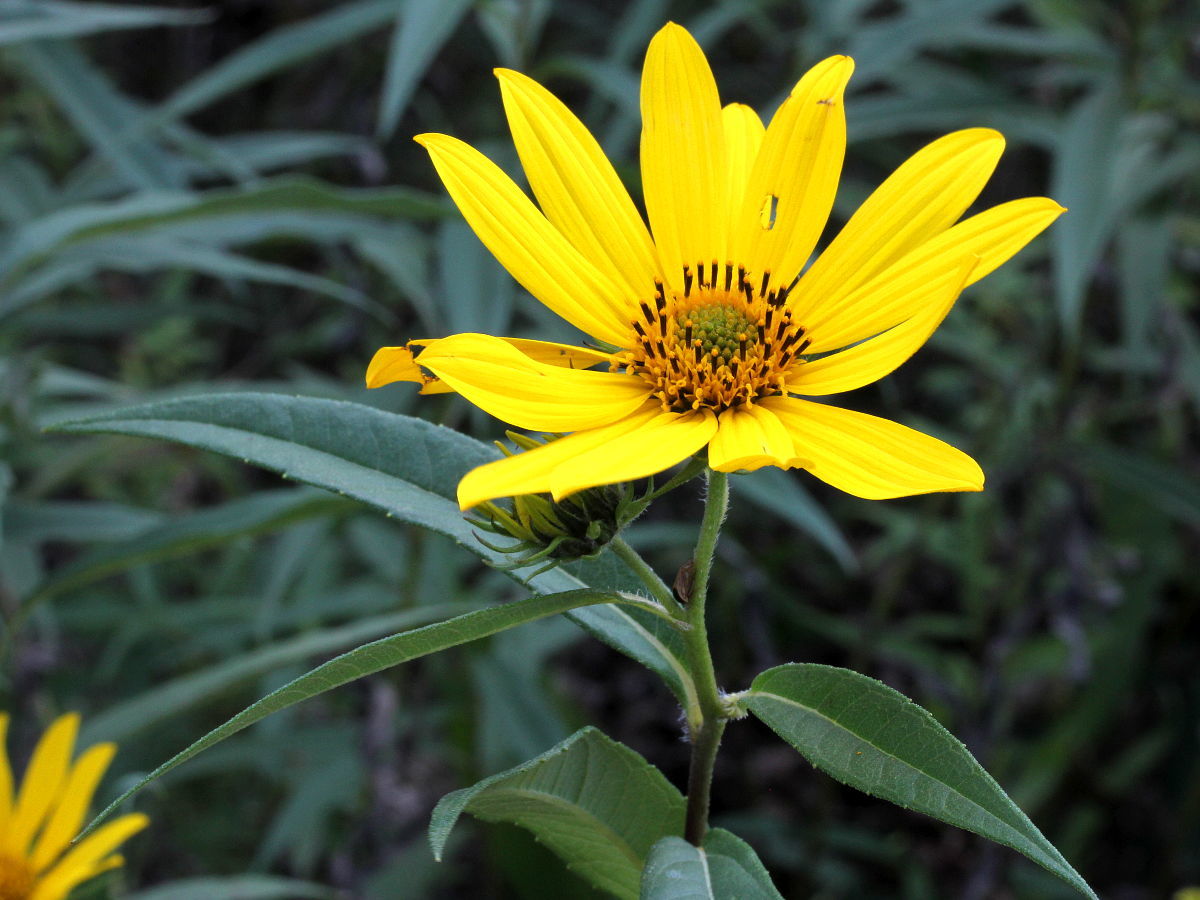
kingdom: Plantae
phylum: Tracheophyta
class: Magnoliopsida
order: Asterales
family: Asteraceae
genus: Helianthus
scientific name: Helianthus grosseserratus
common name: Sawtooth sunflower
